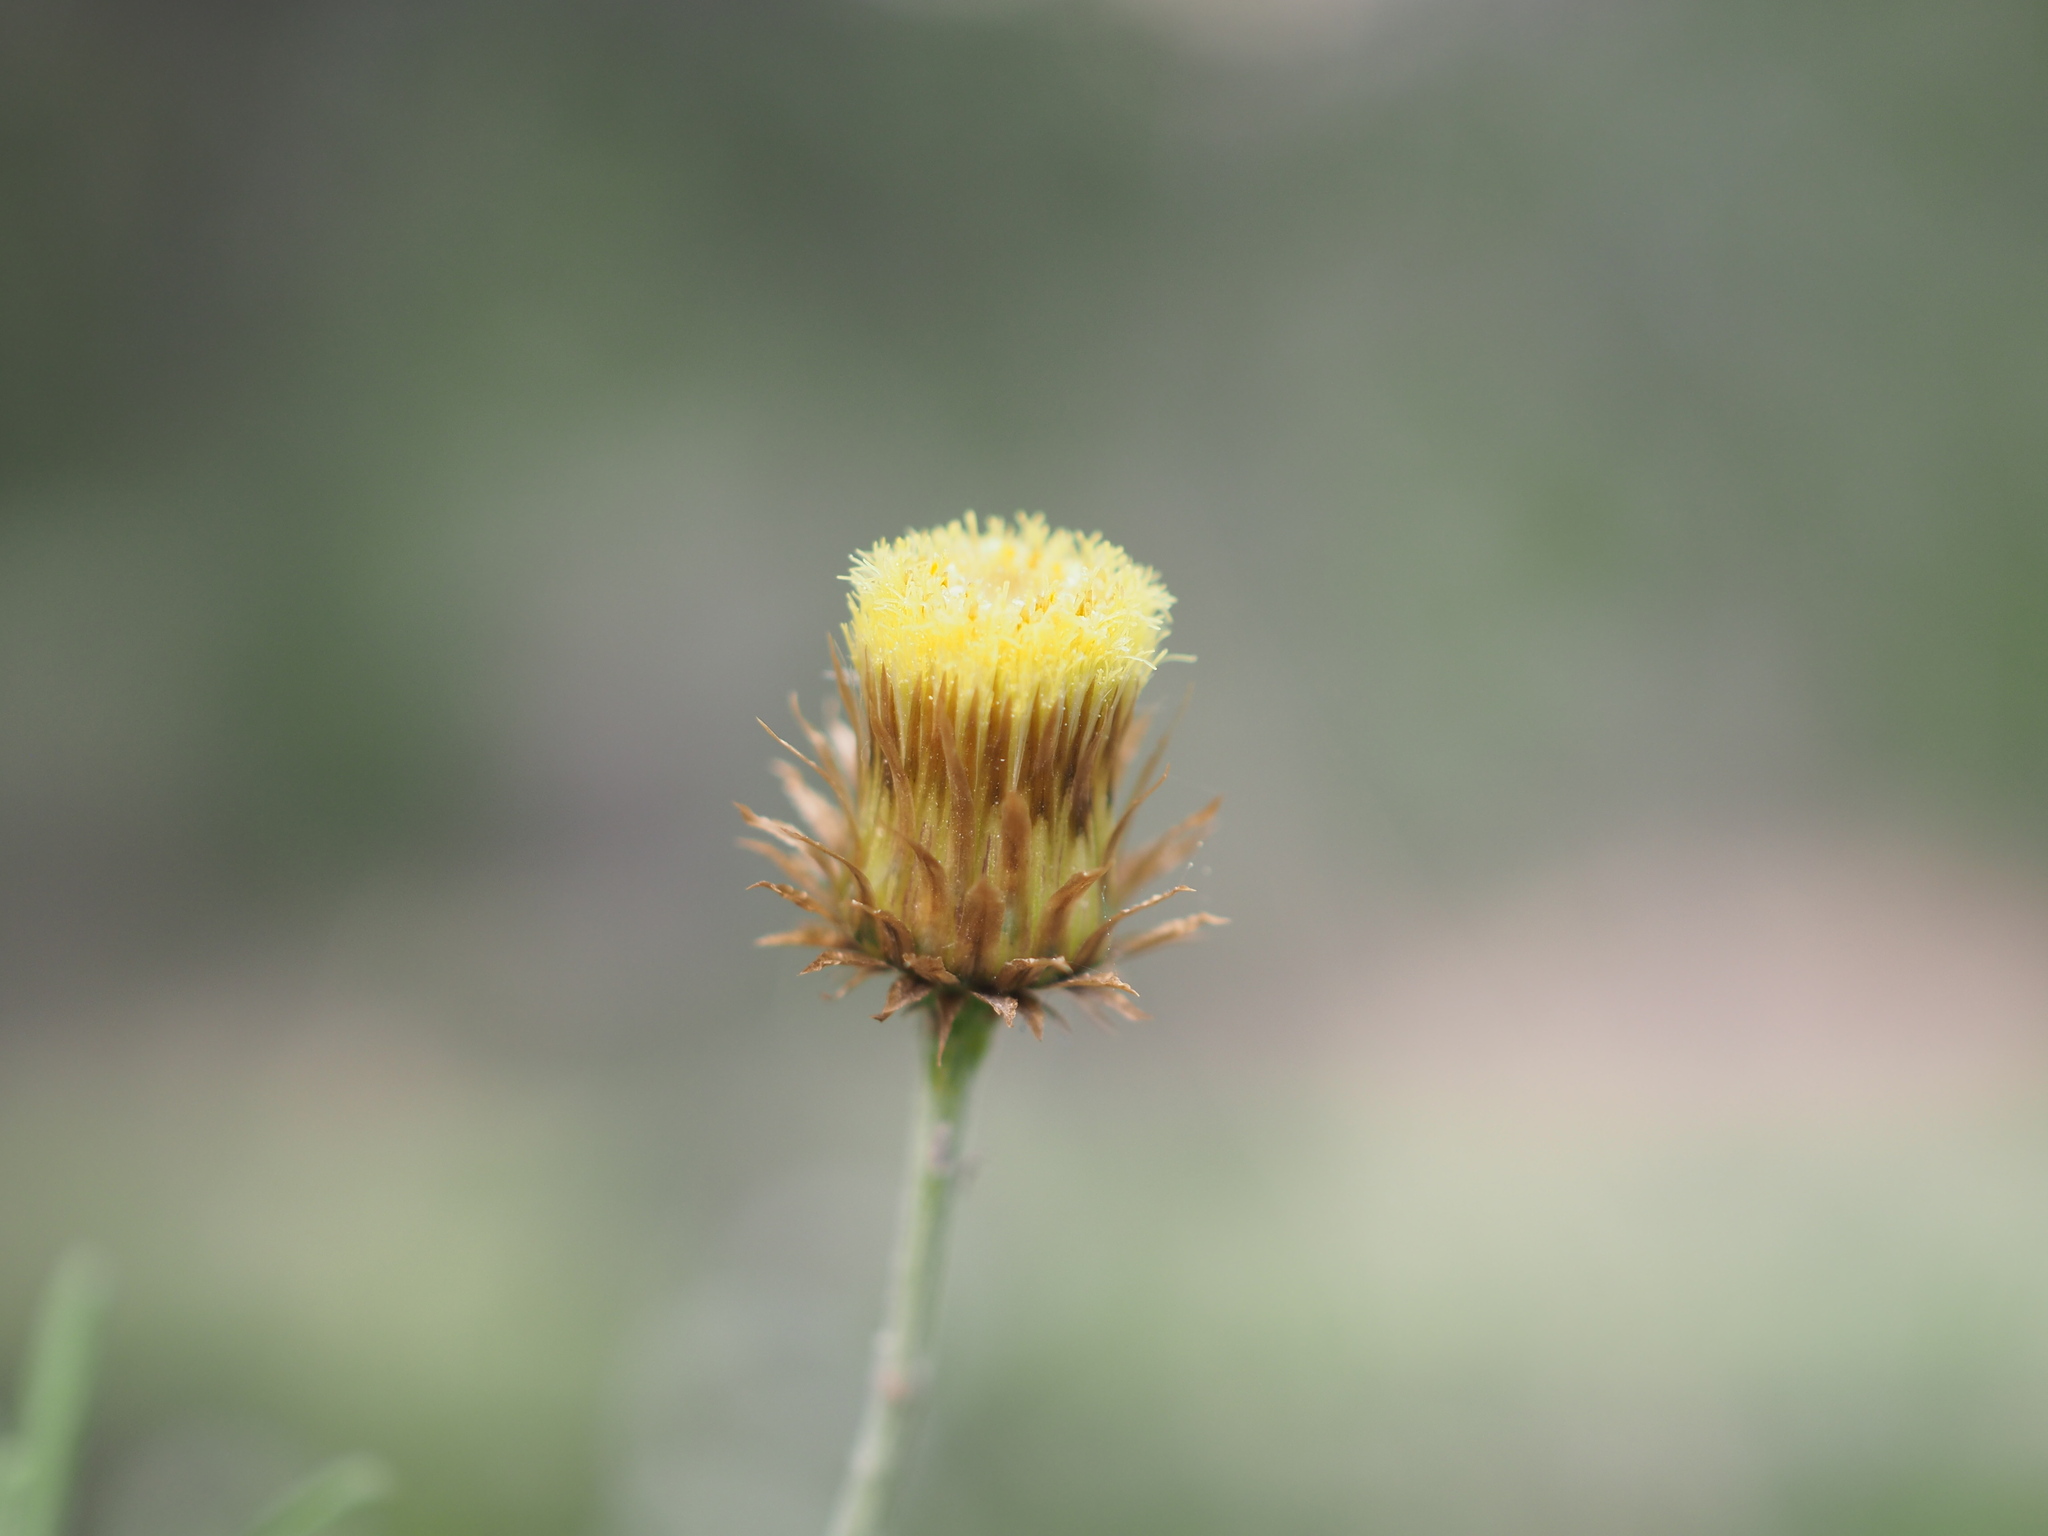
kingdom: Plantae
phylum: Tracheophyta
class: Magnoliopsida
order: Asterales
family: Asteraceae
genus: Phagnalon
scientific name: Phagnalon saxatile
